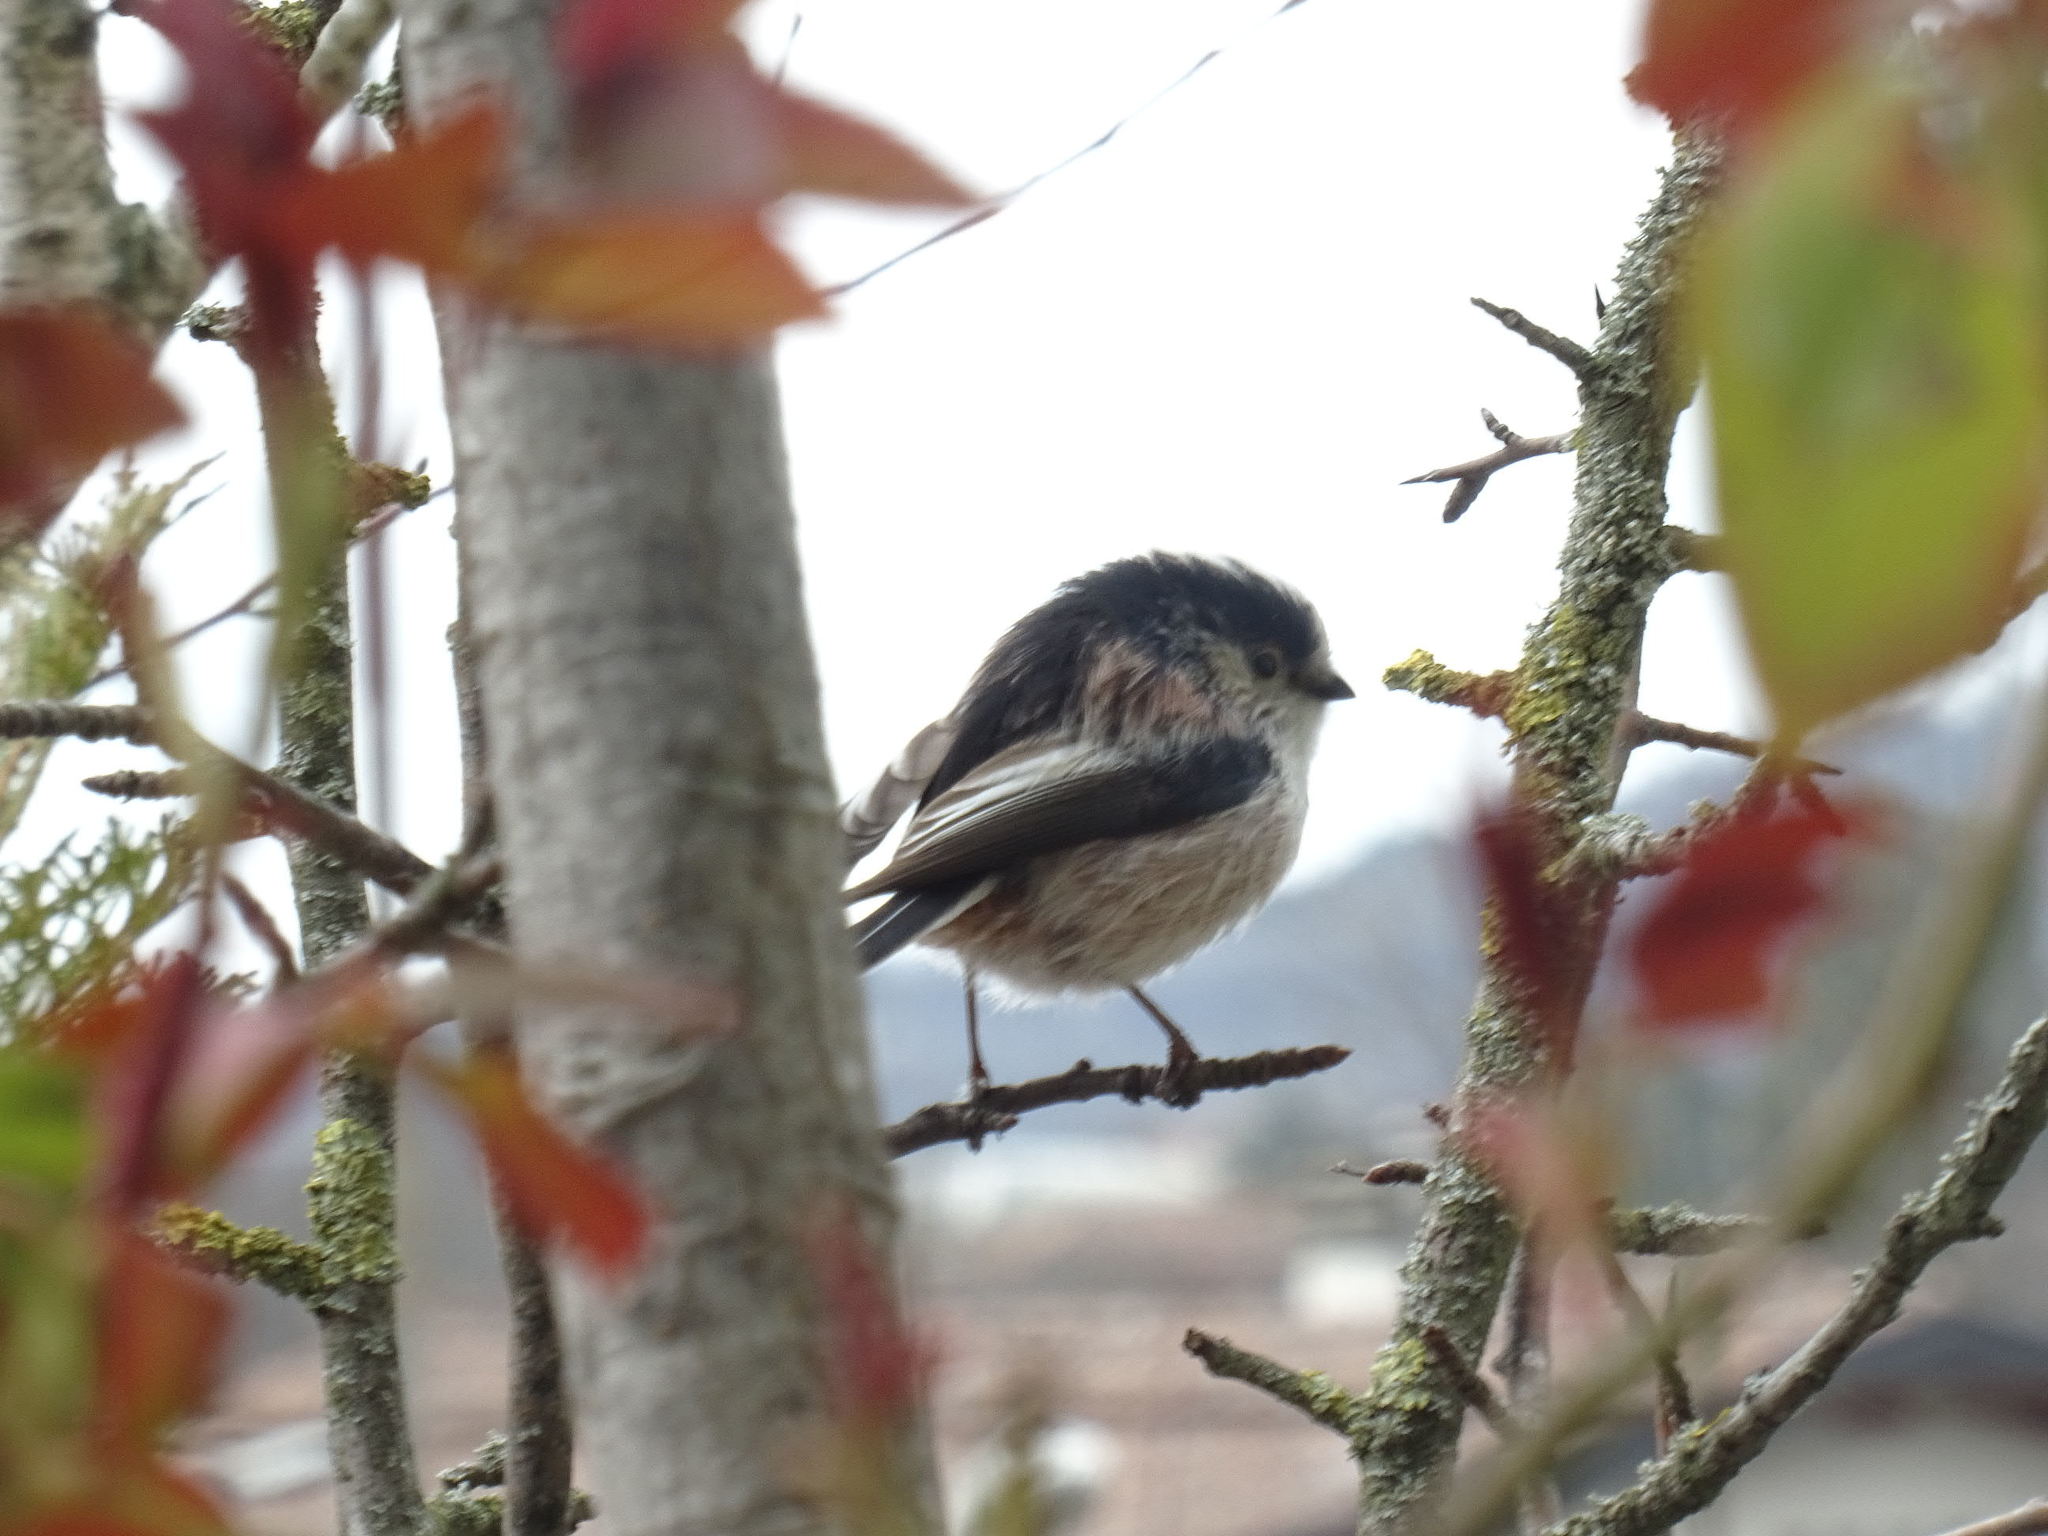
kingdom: Animalia
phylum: Chordata
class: Aves
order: Passeriformes
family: Aegithalidae
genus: Aegithalos
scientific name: Aegithalos caudatus
